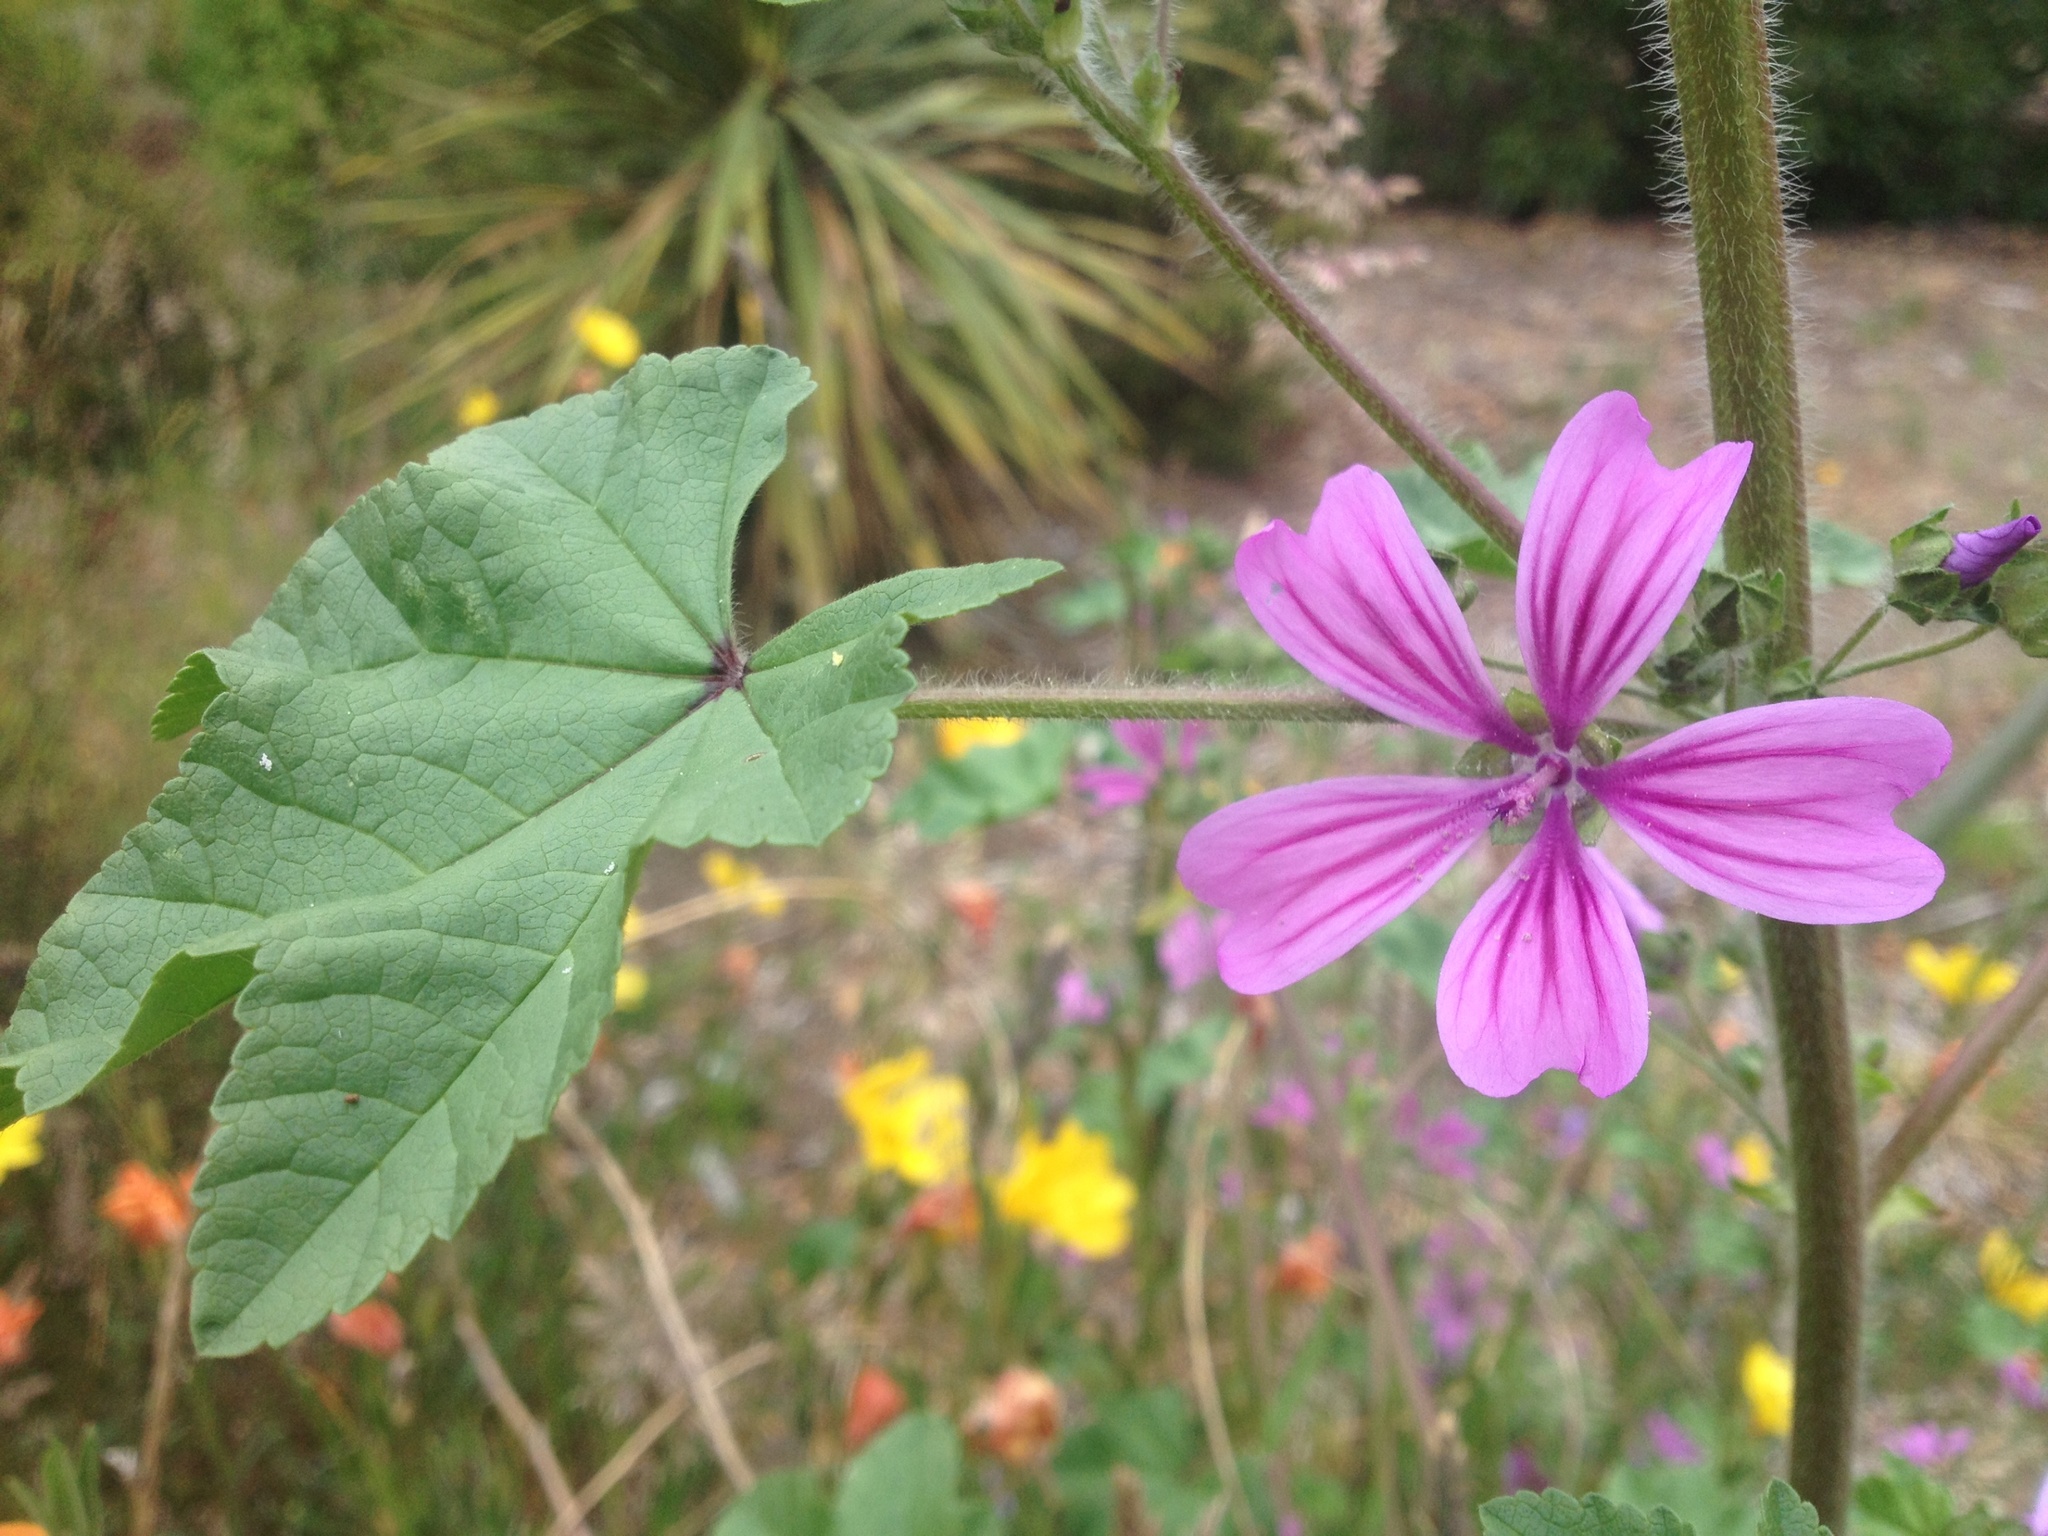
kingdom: Plantae
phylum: Tracheophyta
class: Magnoliopsida
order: Malvales
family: Malvaceae
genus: Malva
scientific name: Malva sylvestris
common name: Common mallow
